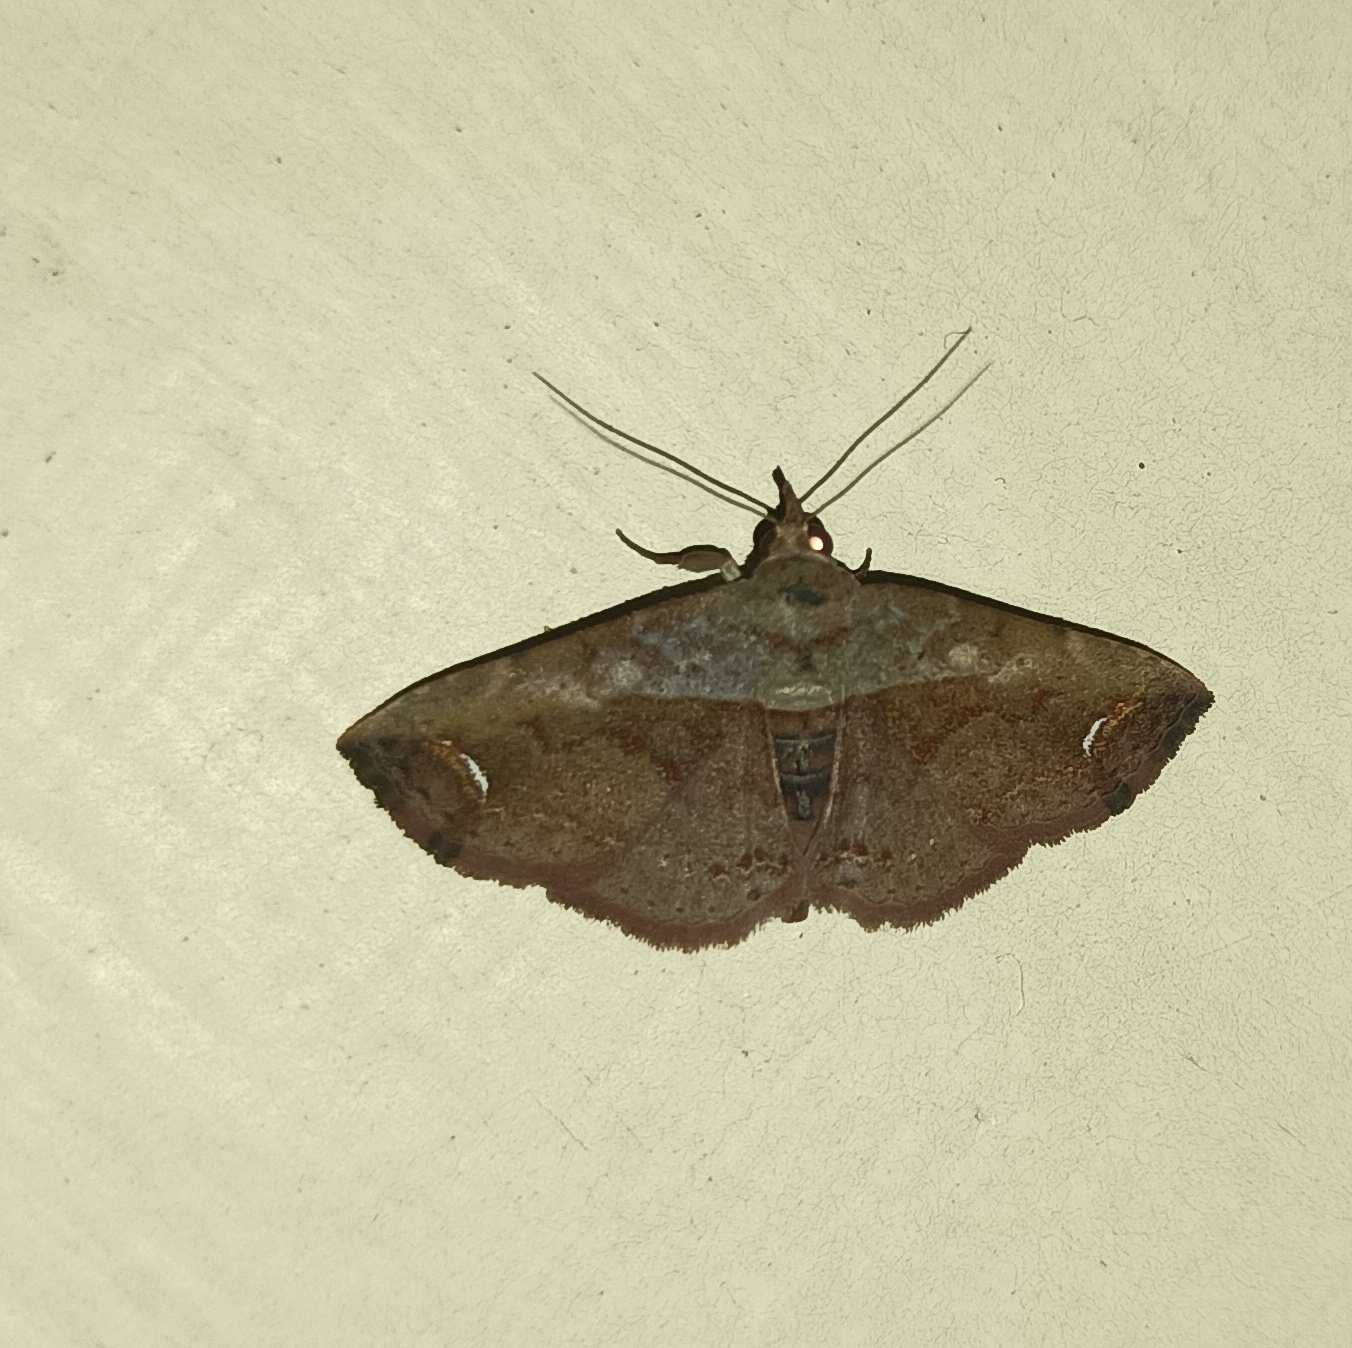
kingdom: Animalia
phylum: Arthropoda
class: Insecta
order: Lepidoptera
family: Noctuidae
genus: Eugnathia
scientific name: Eugnathia lunifera
